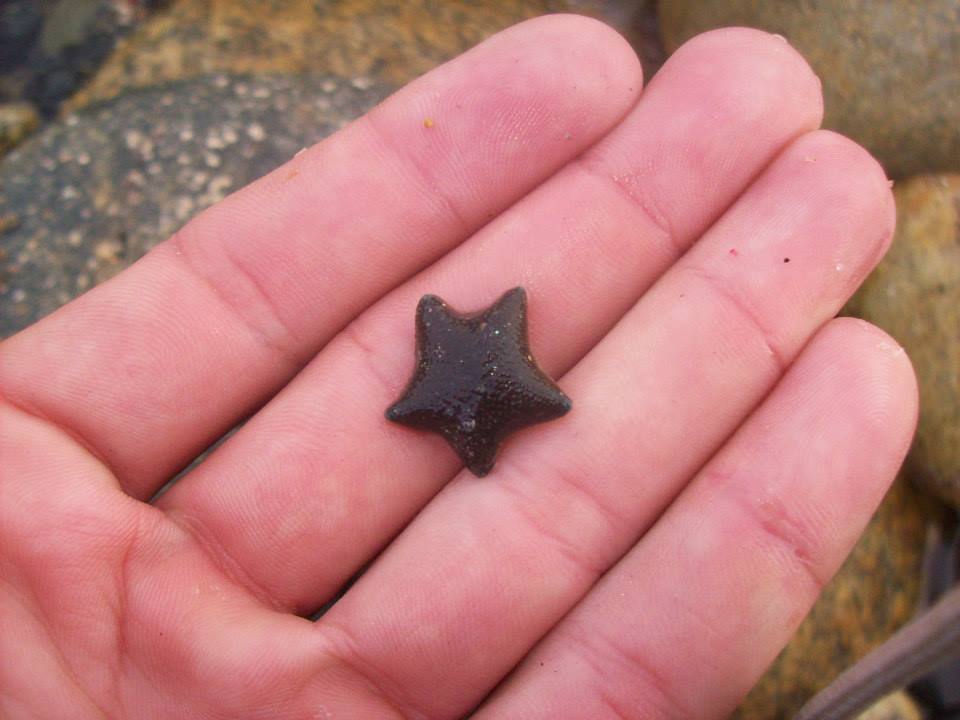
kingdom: Animalia
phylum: Echinodermata
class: Asteroidea
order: Valvatida
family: Asterinidae
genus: Patiriella
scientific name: Patiriella regularis
